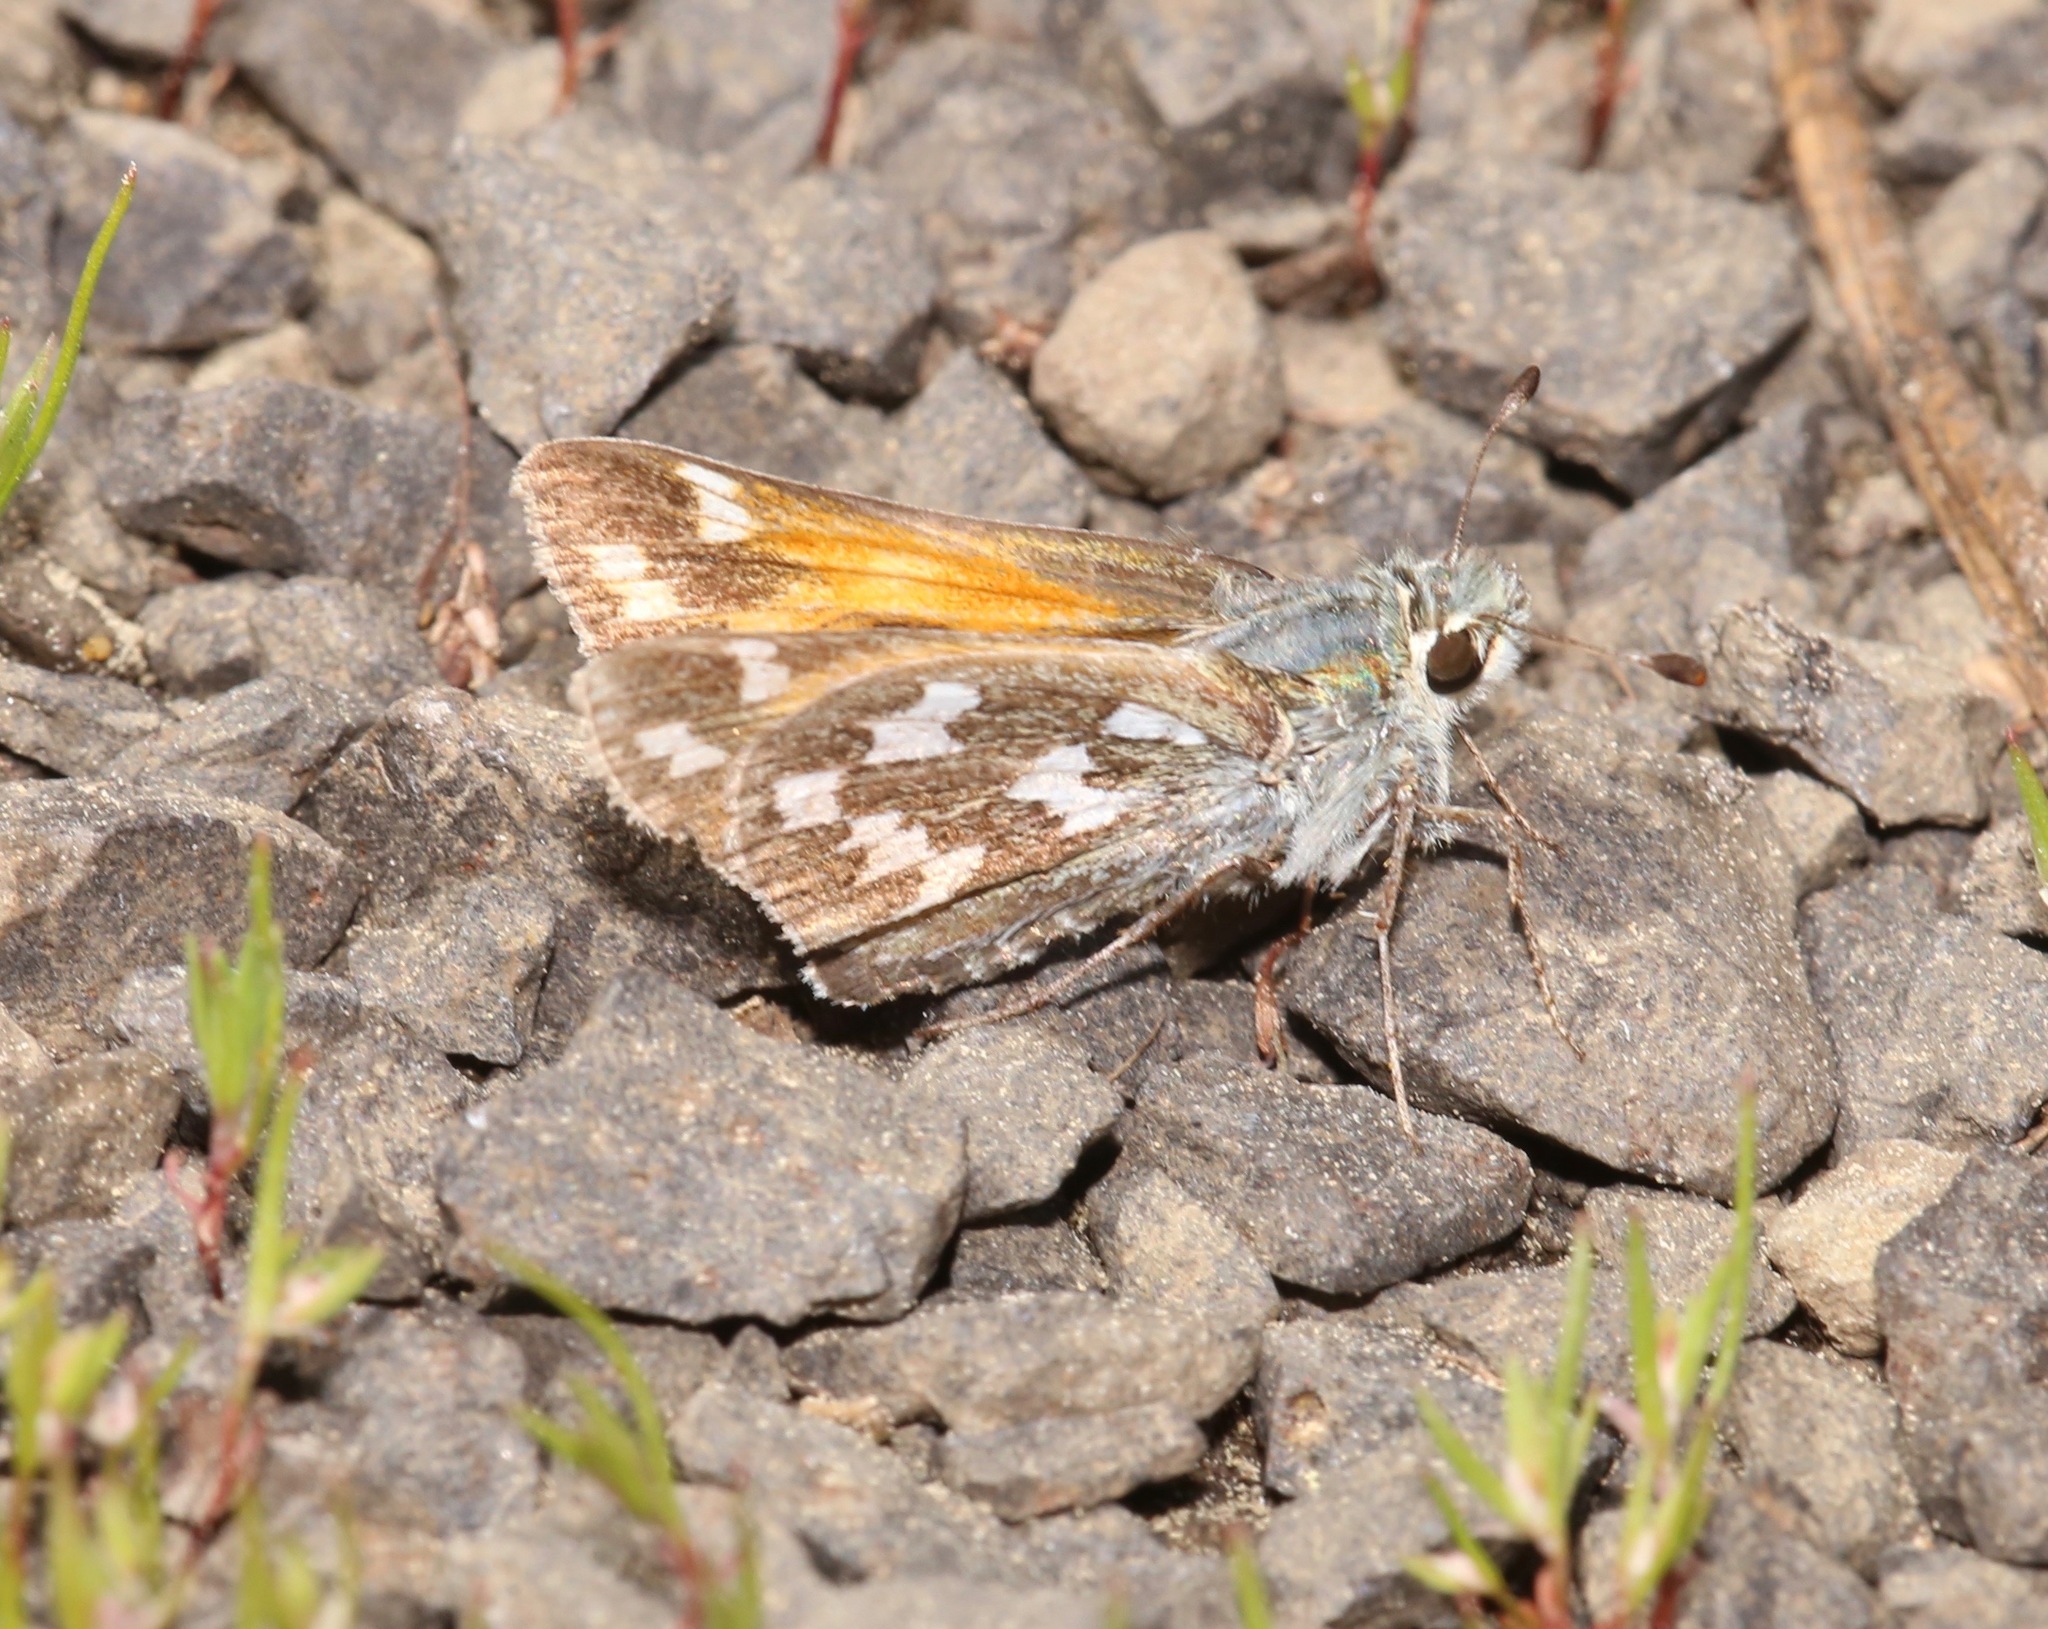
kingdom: Animalia
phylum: Arthropoda
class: Insecta
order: Lepidoptera
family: Hesperiidae
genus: Hesperia
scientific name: Hesperia juba
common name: Juba skipper
